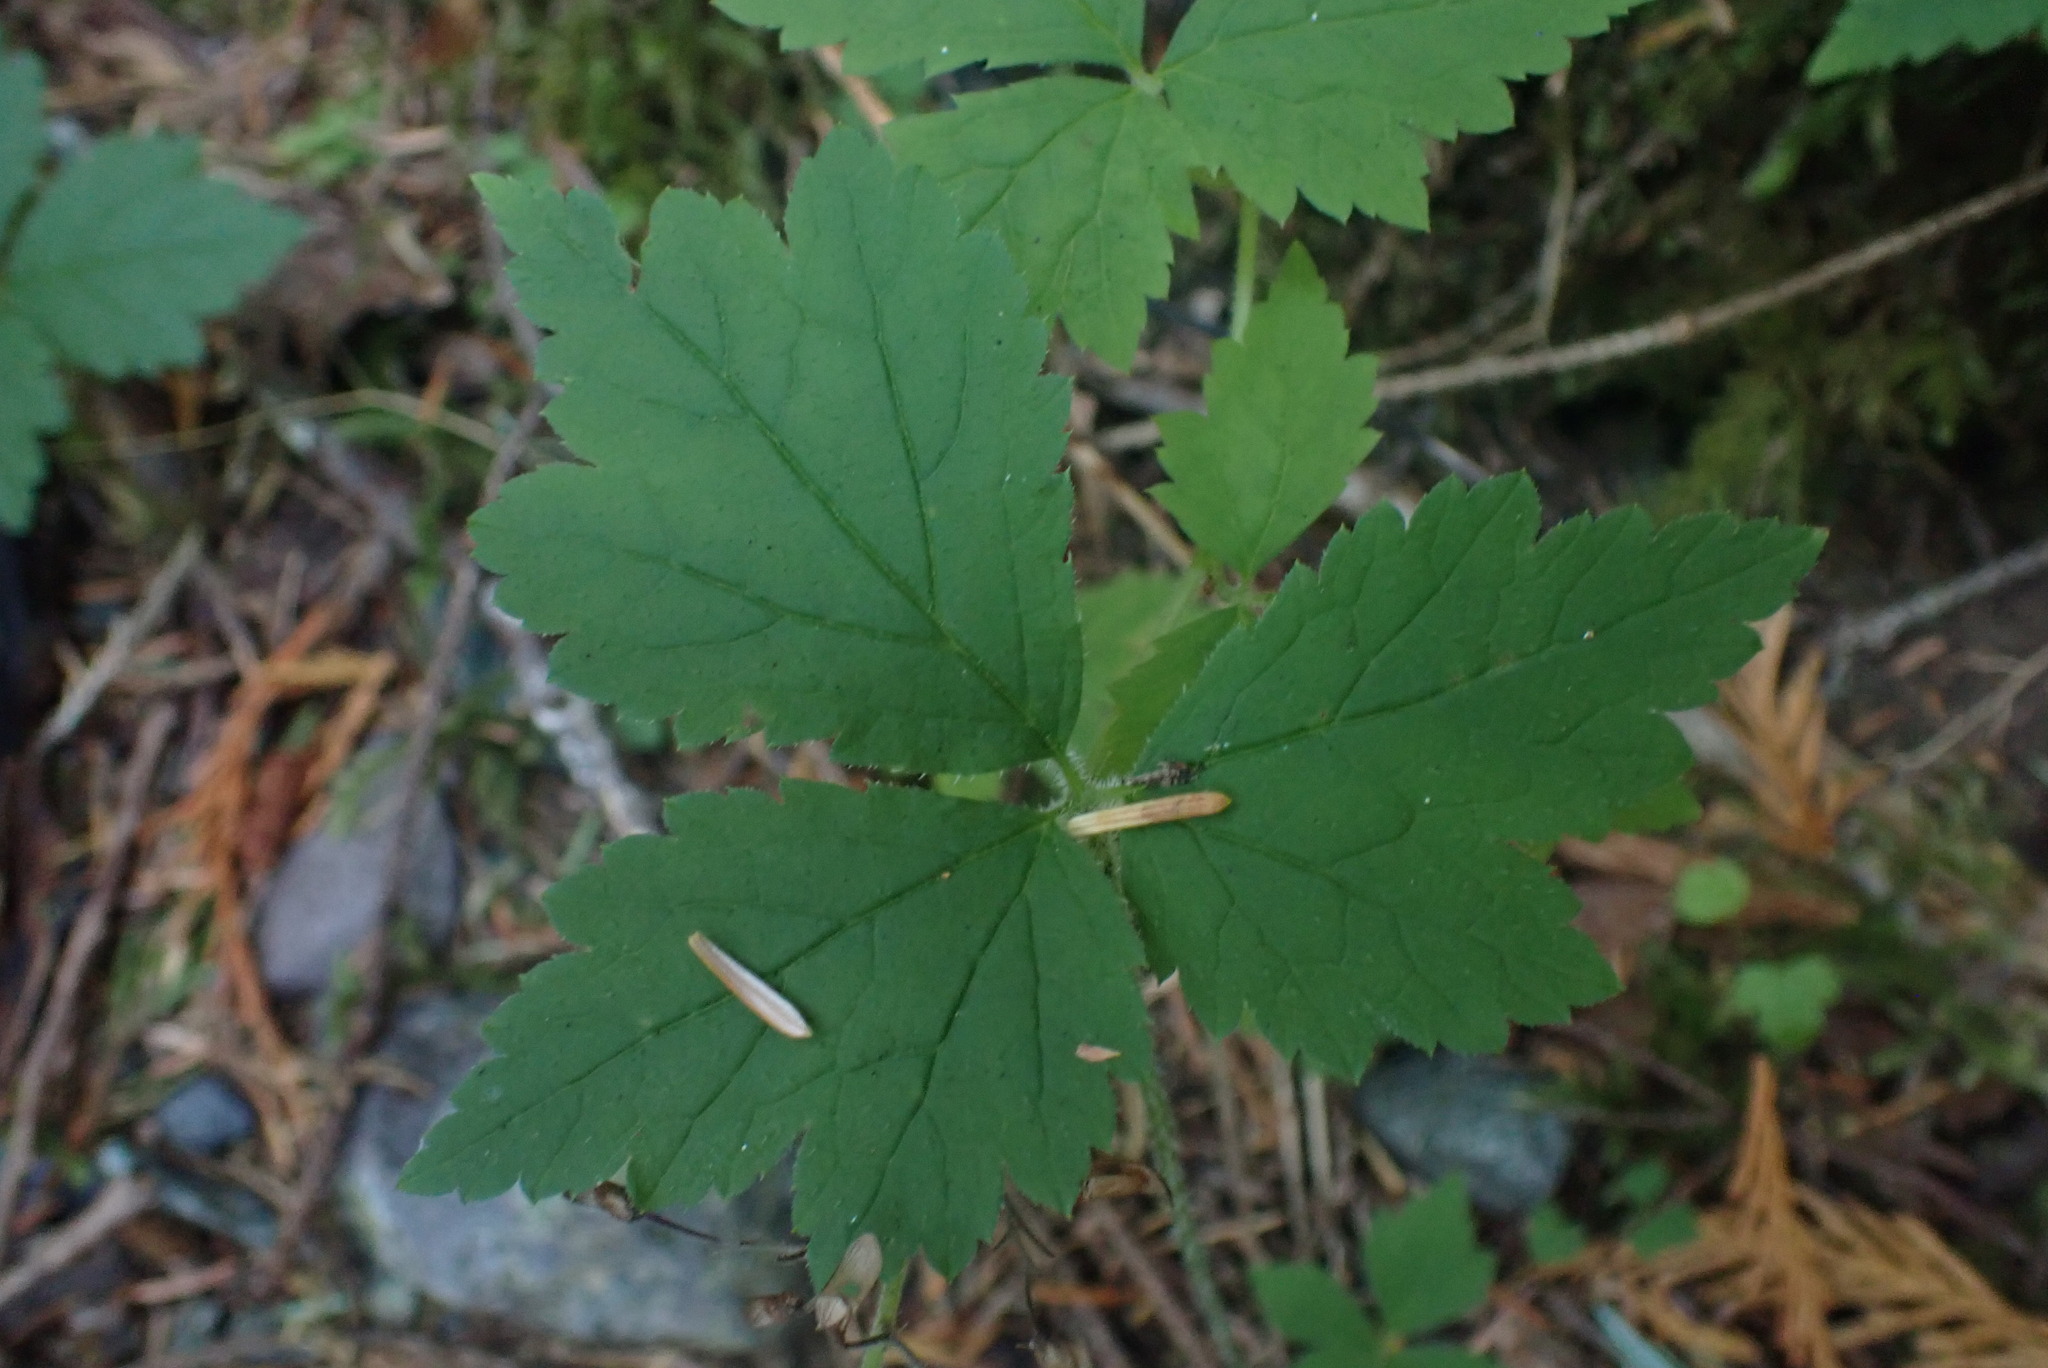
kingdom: Plantae
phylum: Tracheophyta
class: Magnoliopsida
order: Saxifragales
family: Saxifragaceae
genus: Tiarella
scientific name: Tiarella trifoliata
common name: Sugar-scoop
